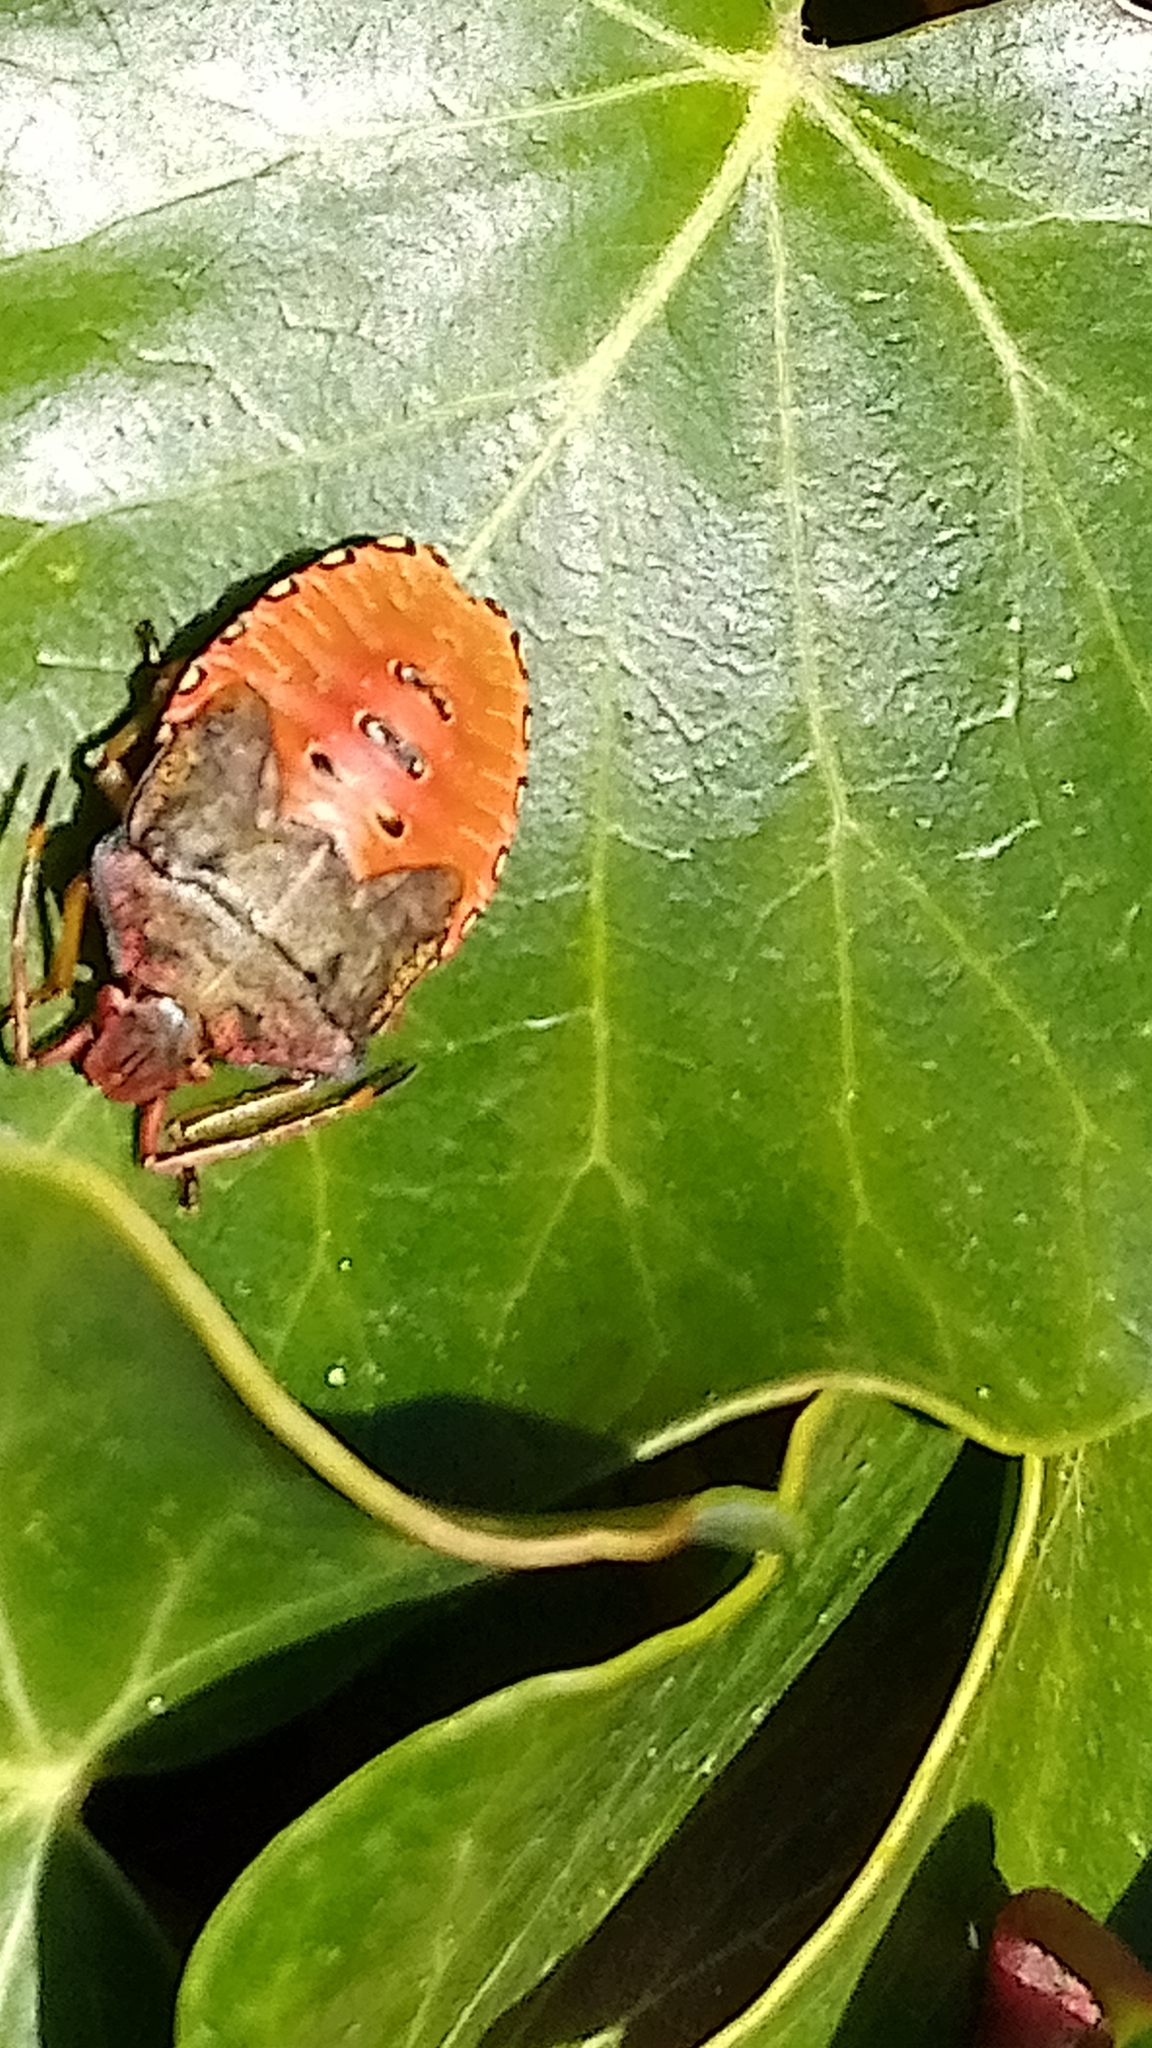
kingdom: Animalia
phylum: Arthropoda
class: Insecta
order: Hemiptera
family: Acanthosomatidae
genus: Acanthosoma
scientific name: Acanthosoma haemorrhoidale
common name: Hawthorn shieldbug
